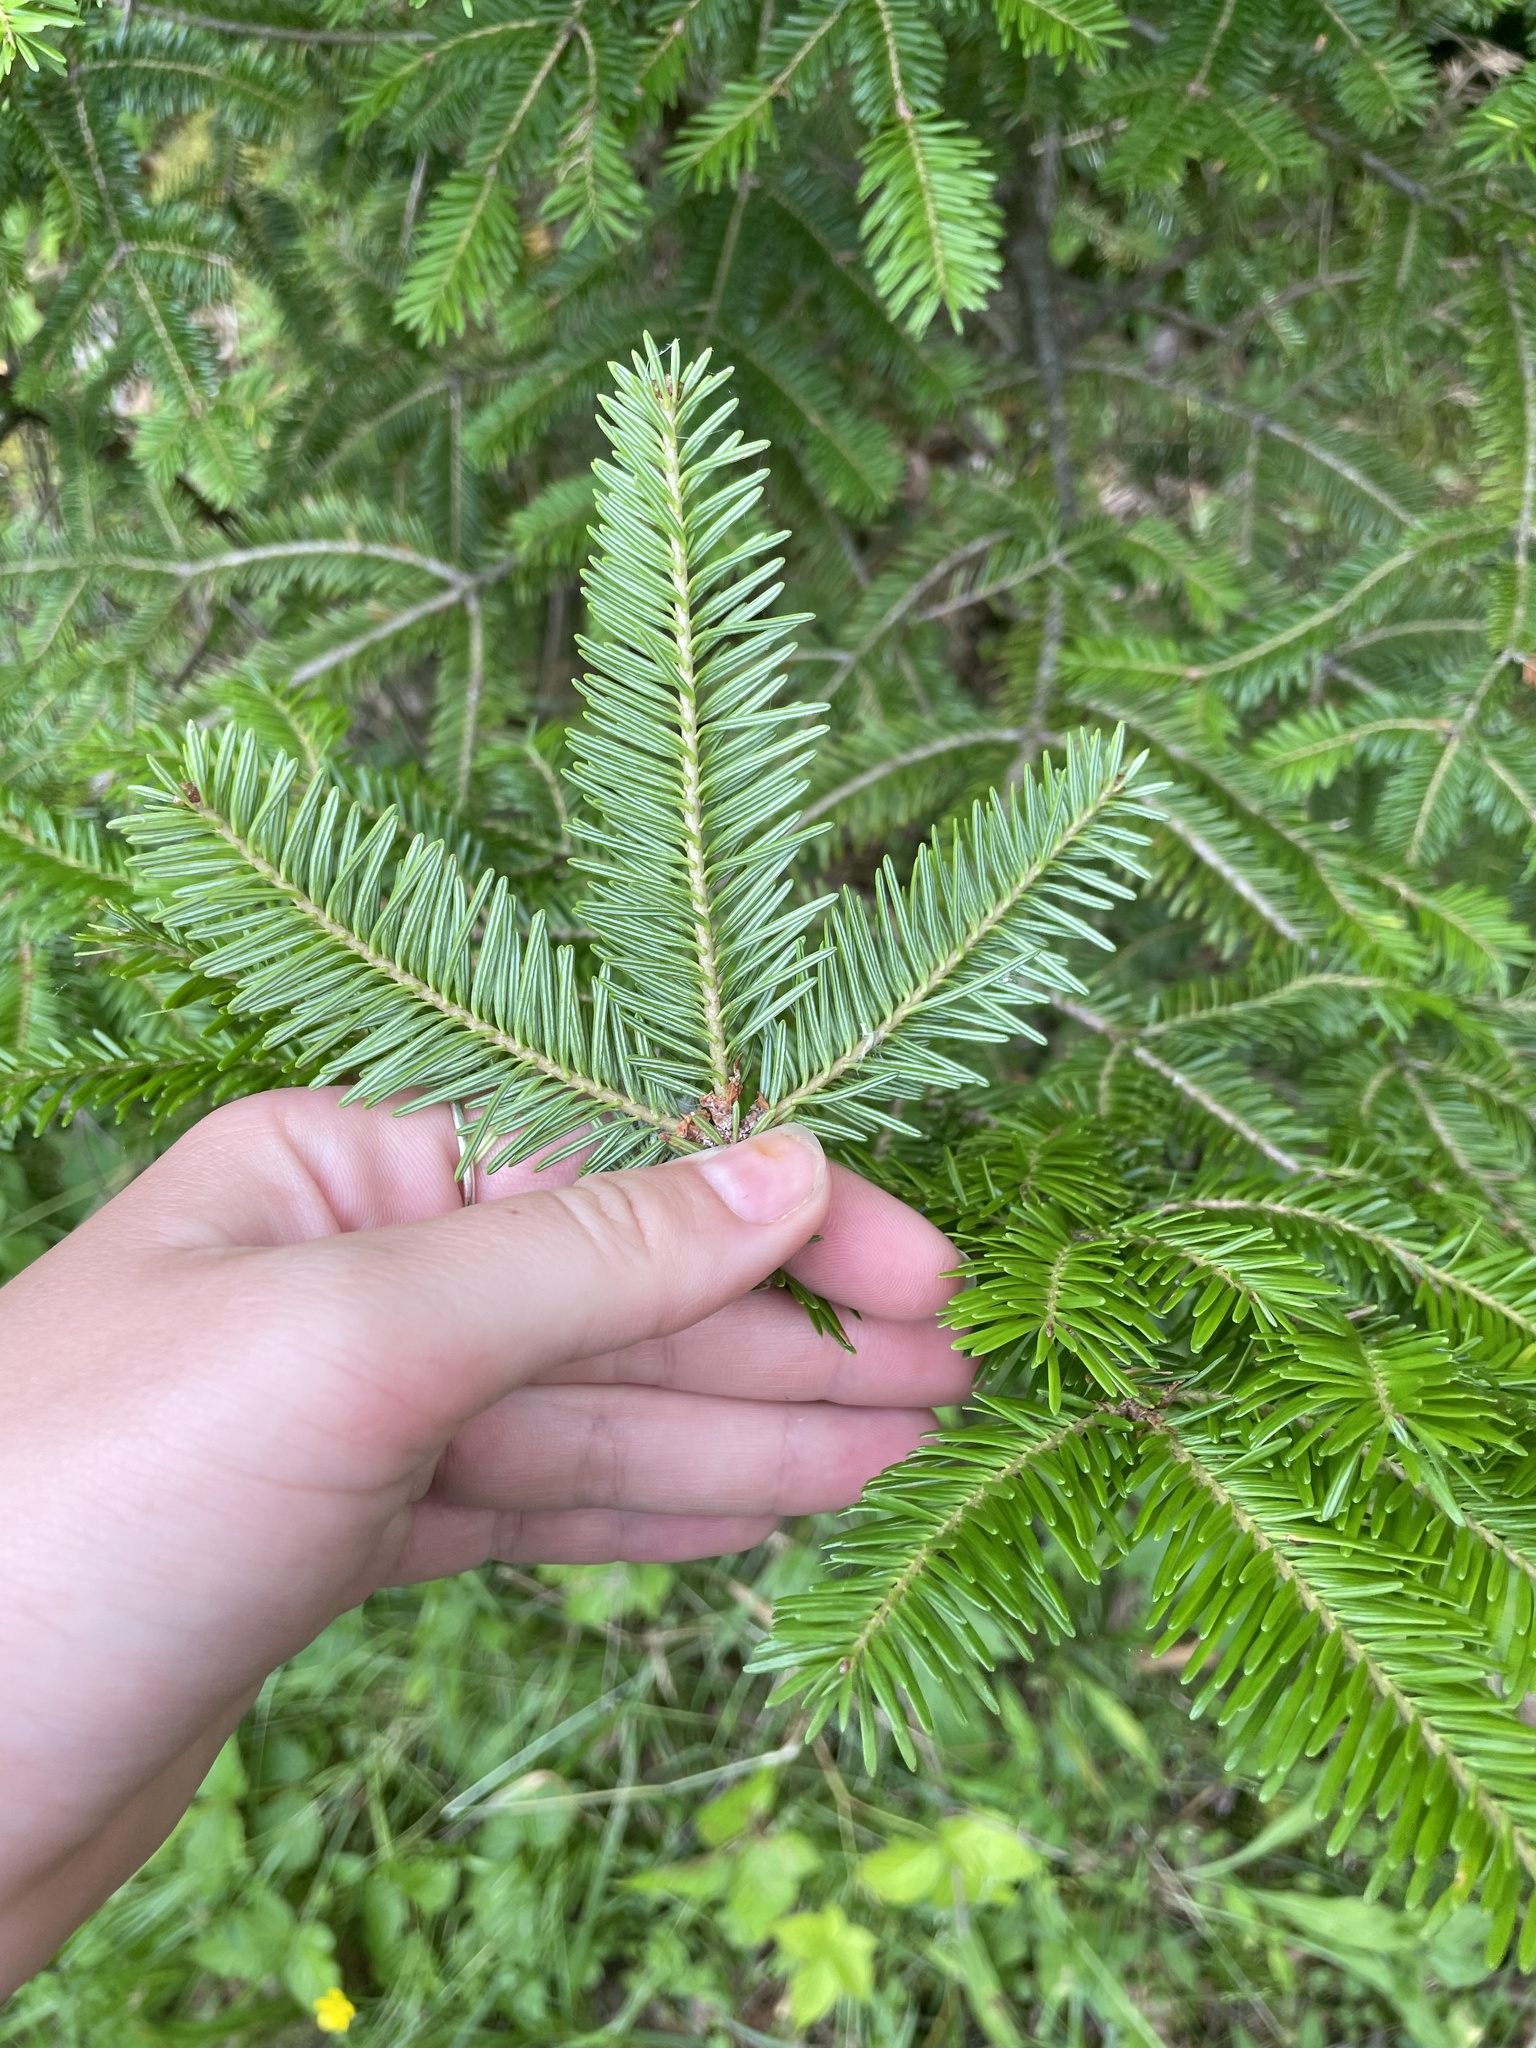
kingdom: Plantae
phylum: Tracheophyta
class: Pinopsida
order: Pinales
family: Pinaceae
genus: Abies
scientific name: Abies balsamea
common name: Balsam fir
